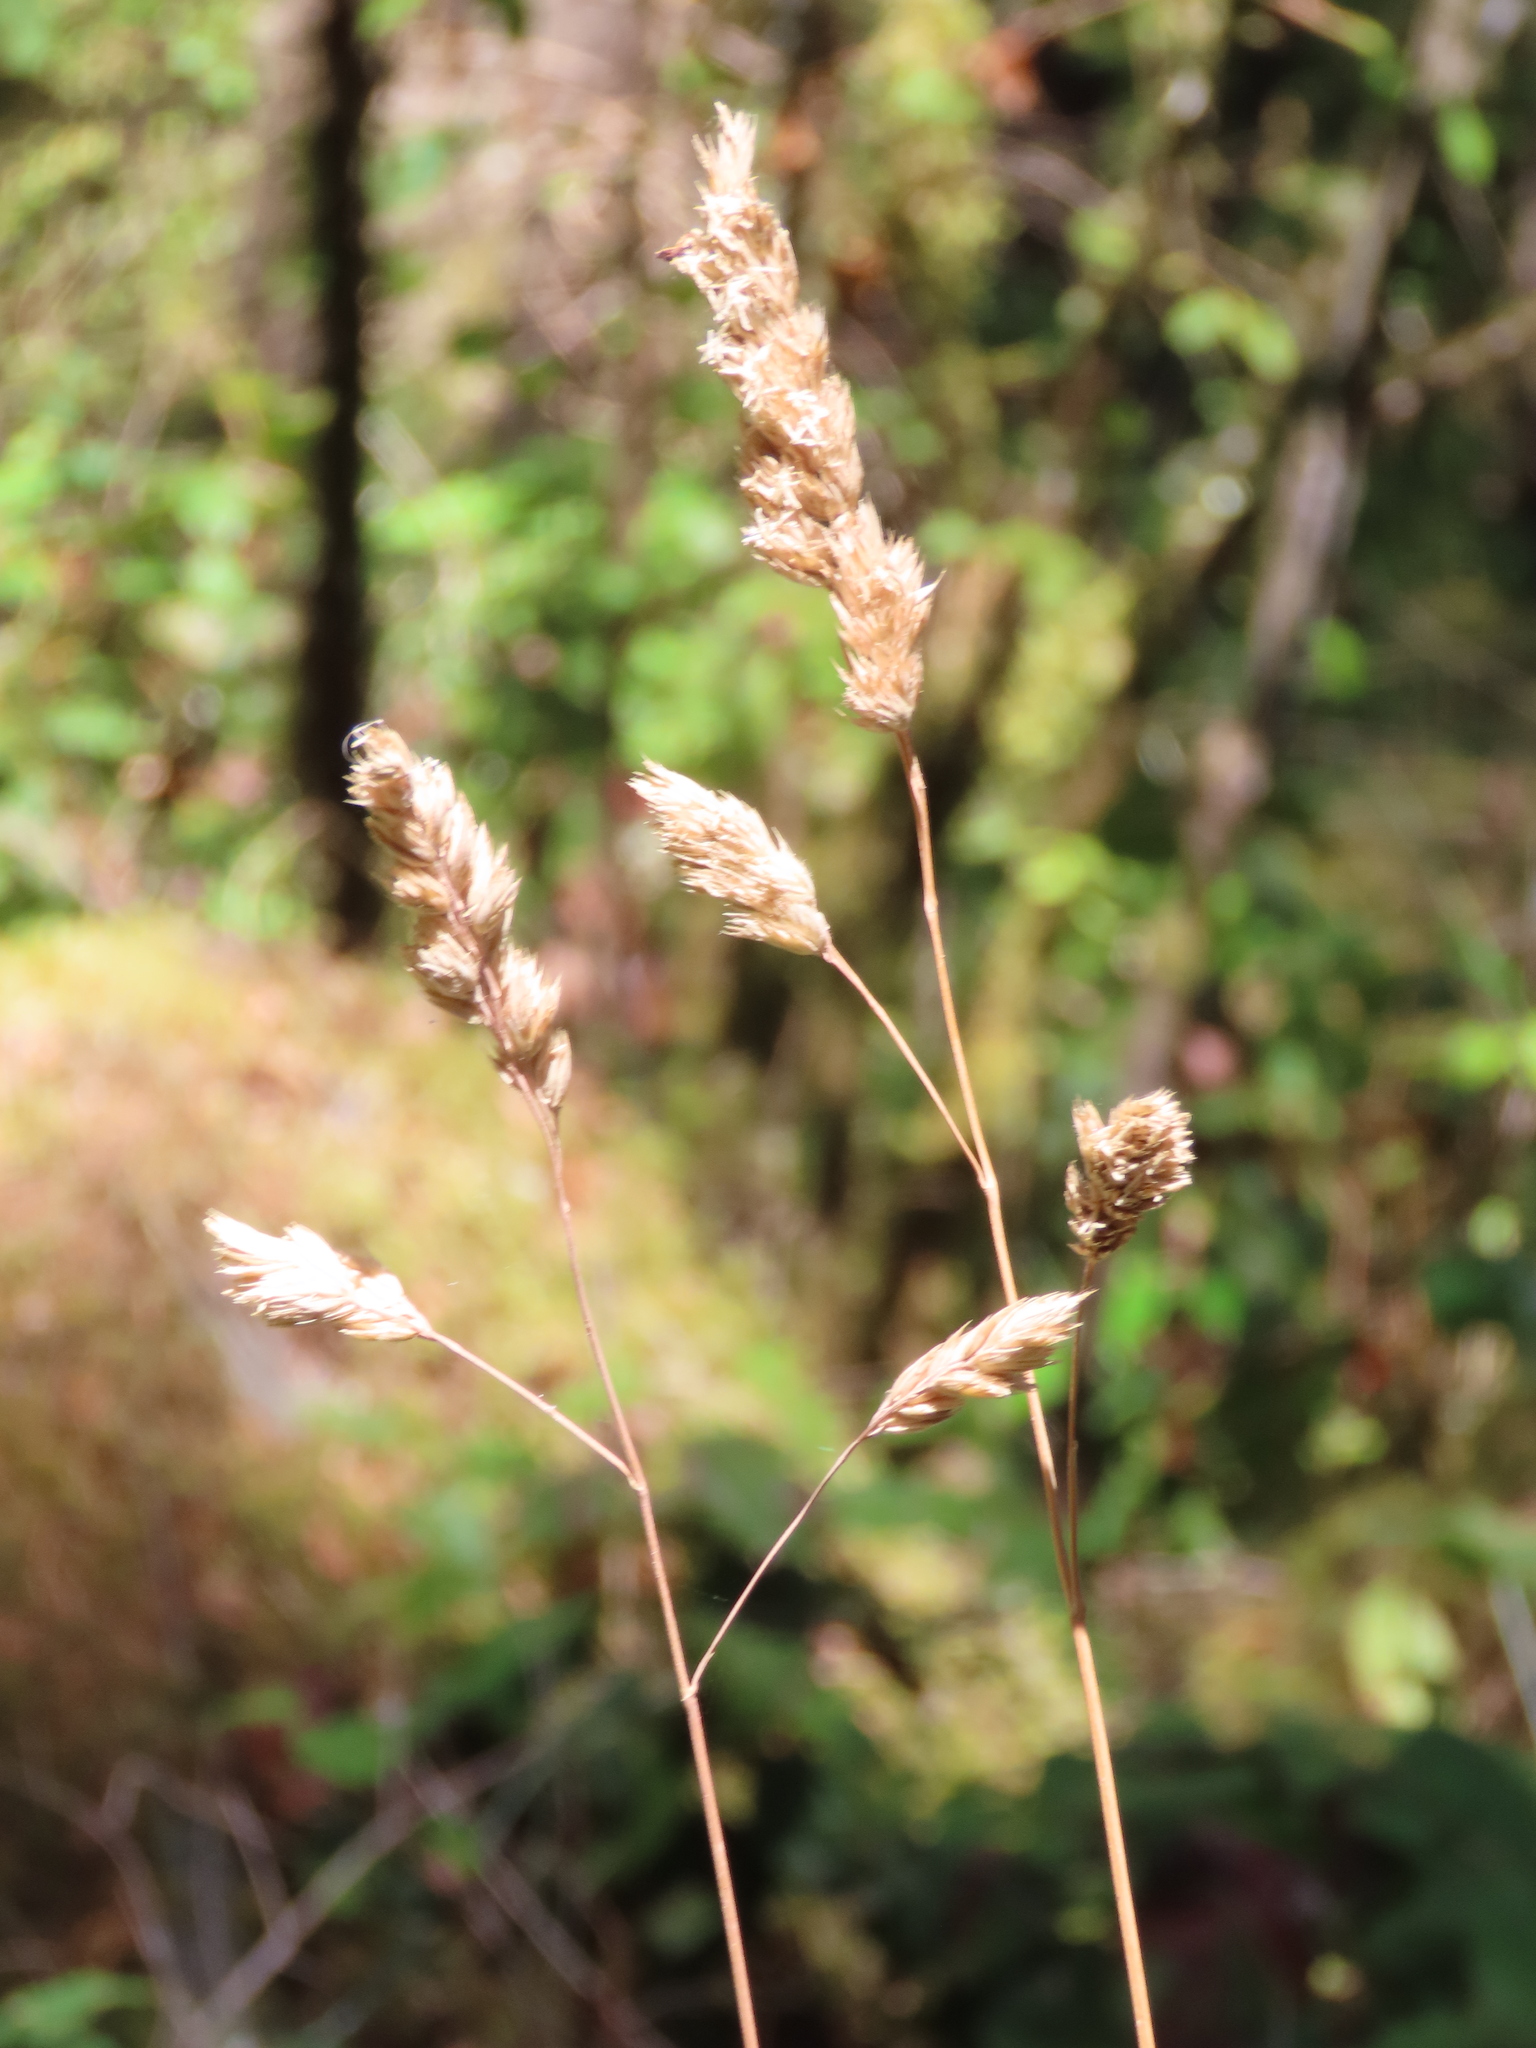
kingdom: Plantae
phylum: Tracheophyta
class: Liliopsida
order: Poales
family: Poaceae
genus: Dactylis
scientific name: Dactylis glomerata
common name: Orchardgrass
